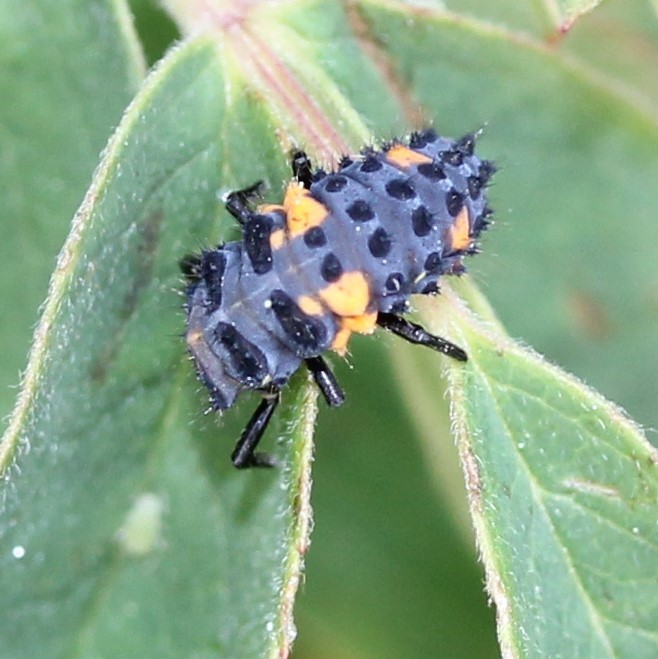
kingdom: Animalia
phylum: Arthropoda
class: Insecta
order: Coleoptera
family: Coccinellidae
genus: Coccinella
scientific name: Coccinella septempunctata
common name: Sevenspotted lady beetle
